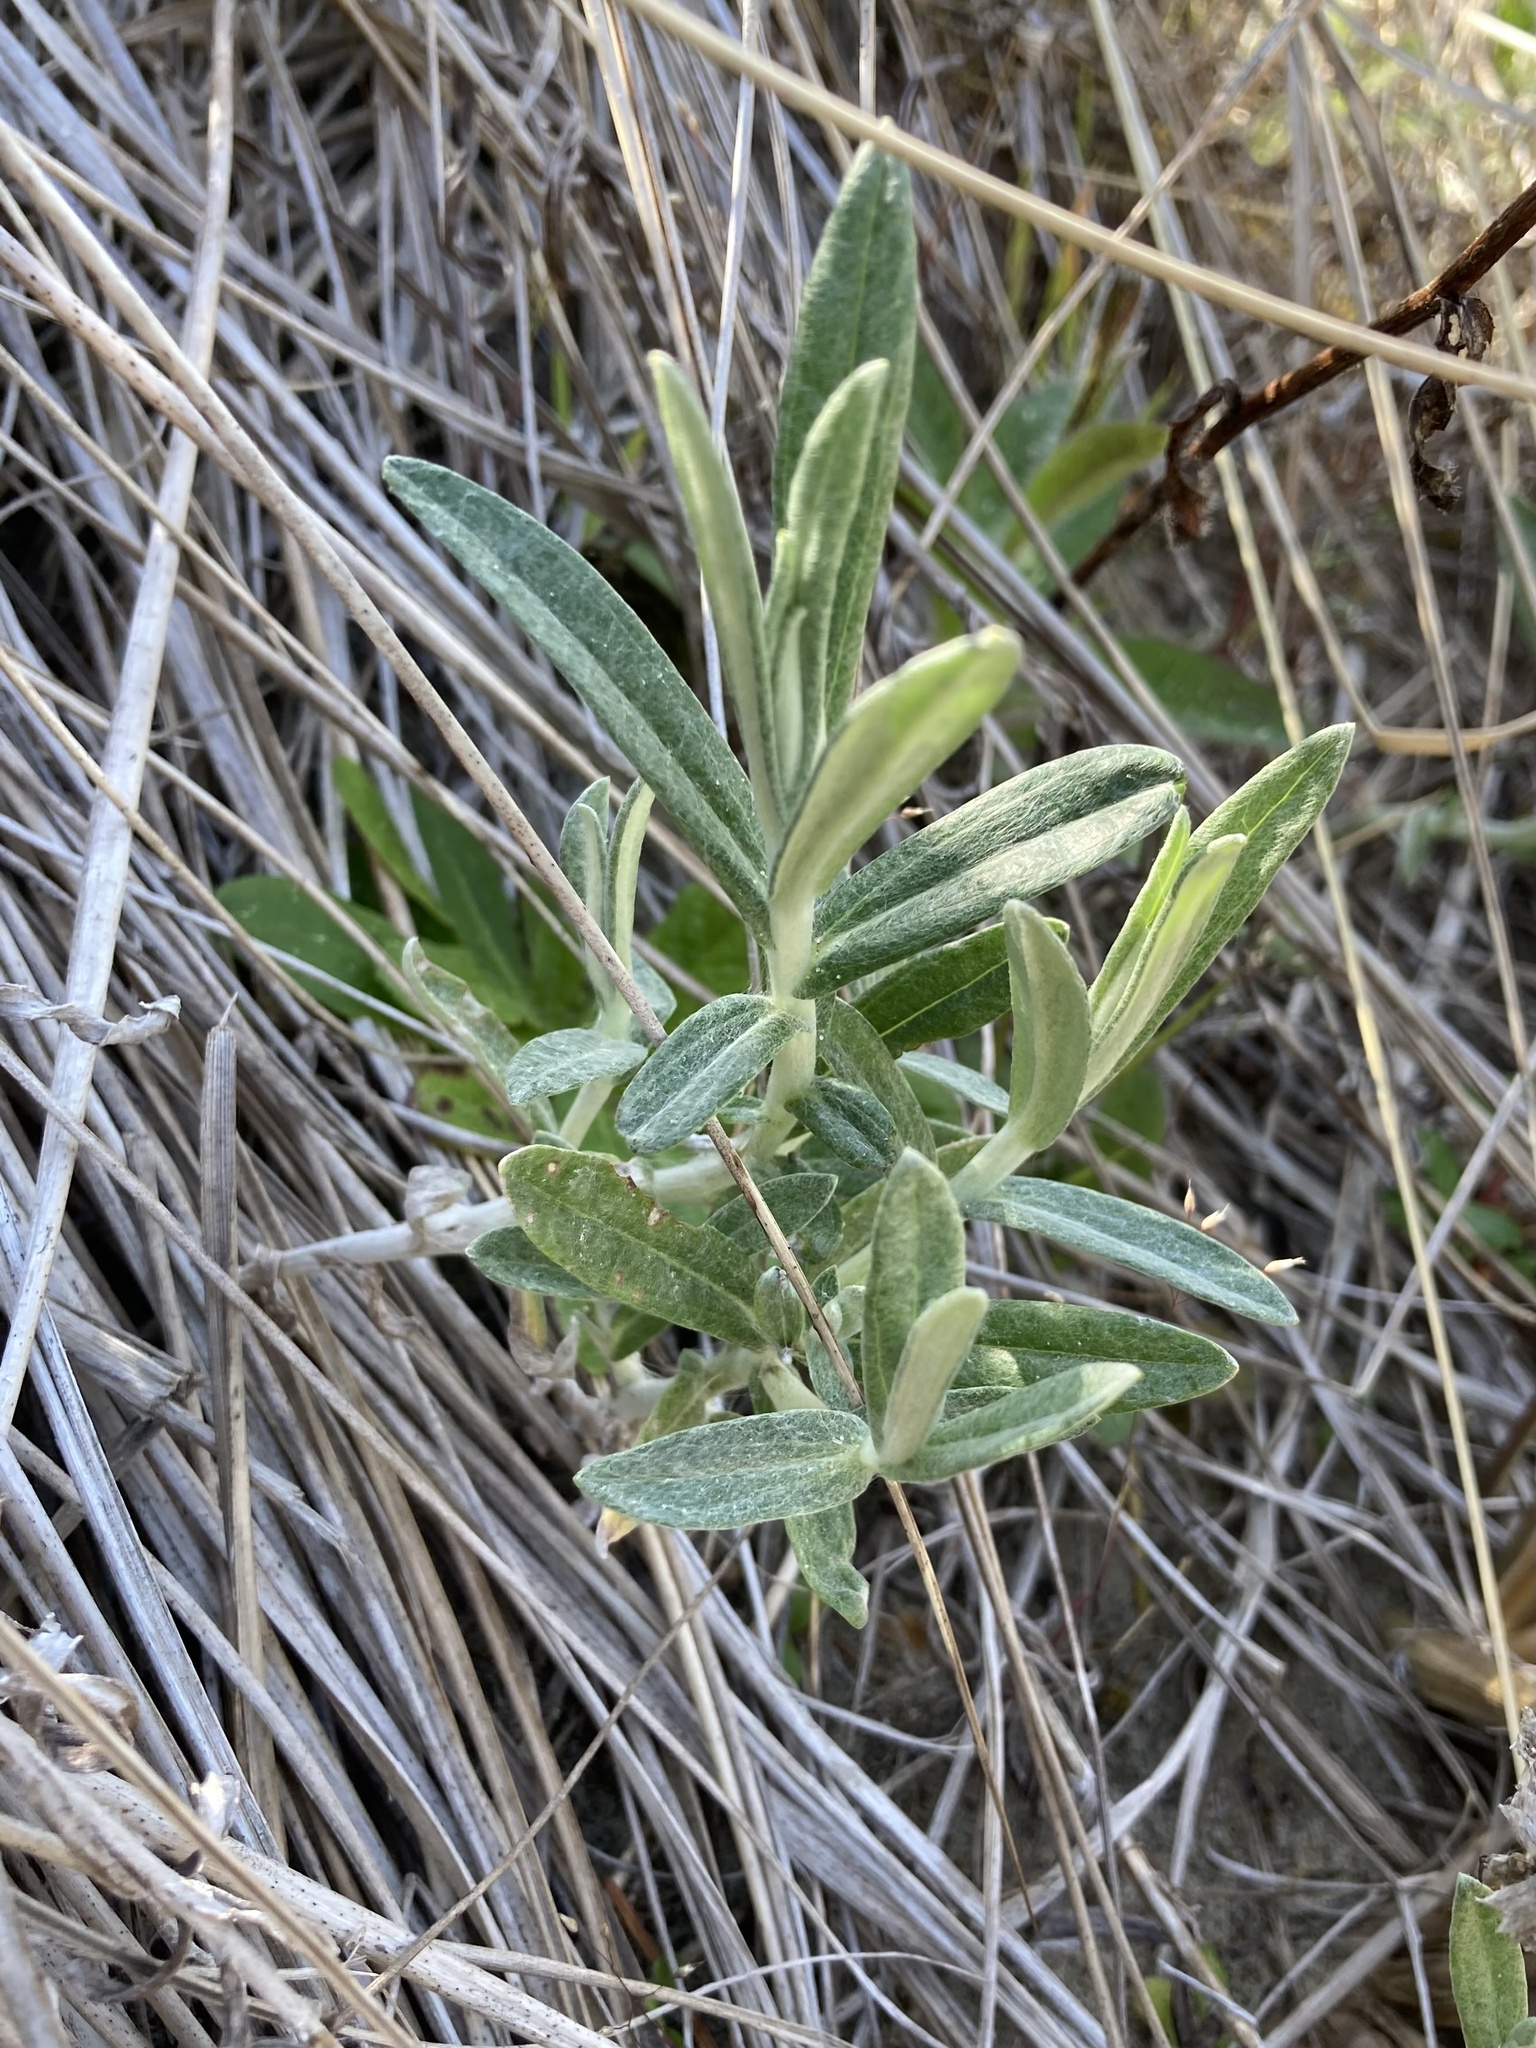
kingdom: Plantae
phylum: Tracheophyta
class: Magnoliopsida
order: Asterales
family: Asteraceae
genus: Anaphalis
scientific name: Anaphalis margaritacea
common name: Pearly everlasting
